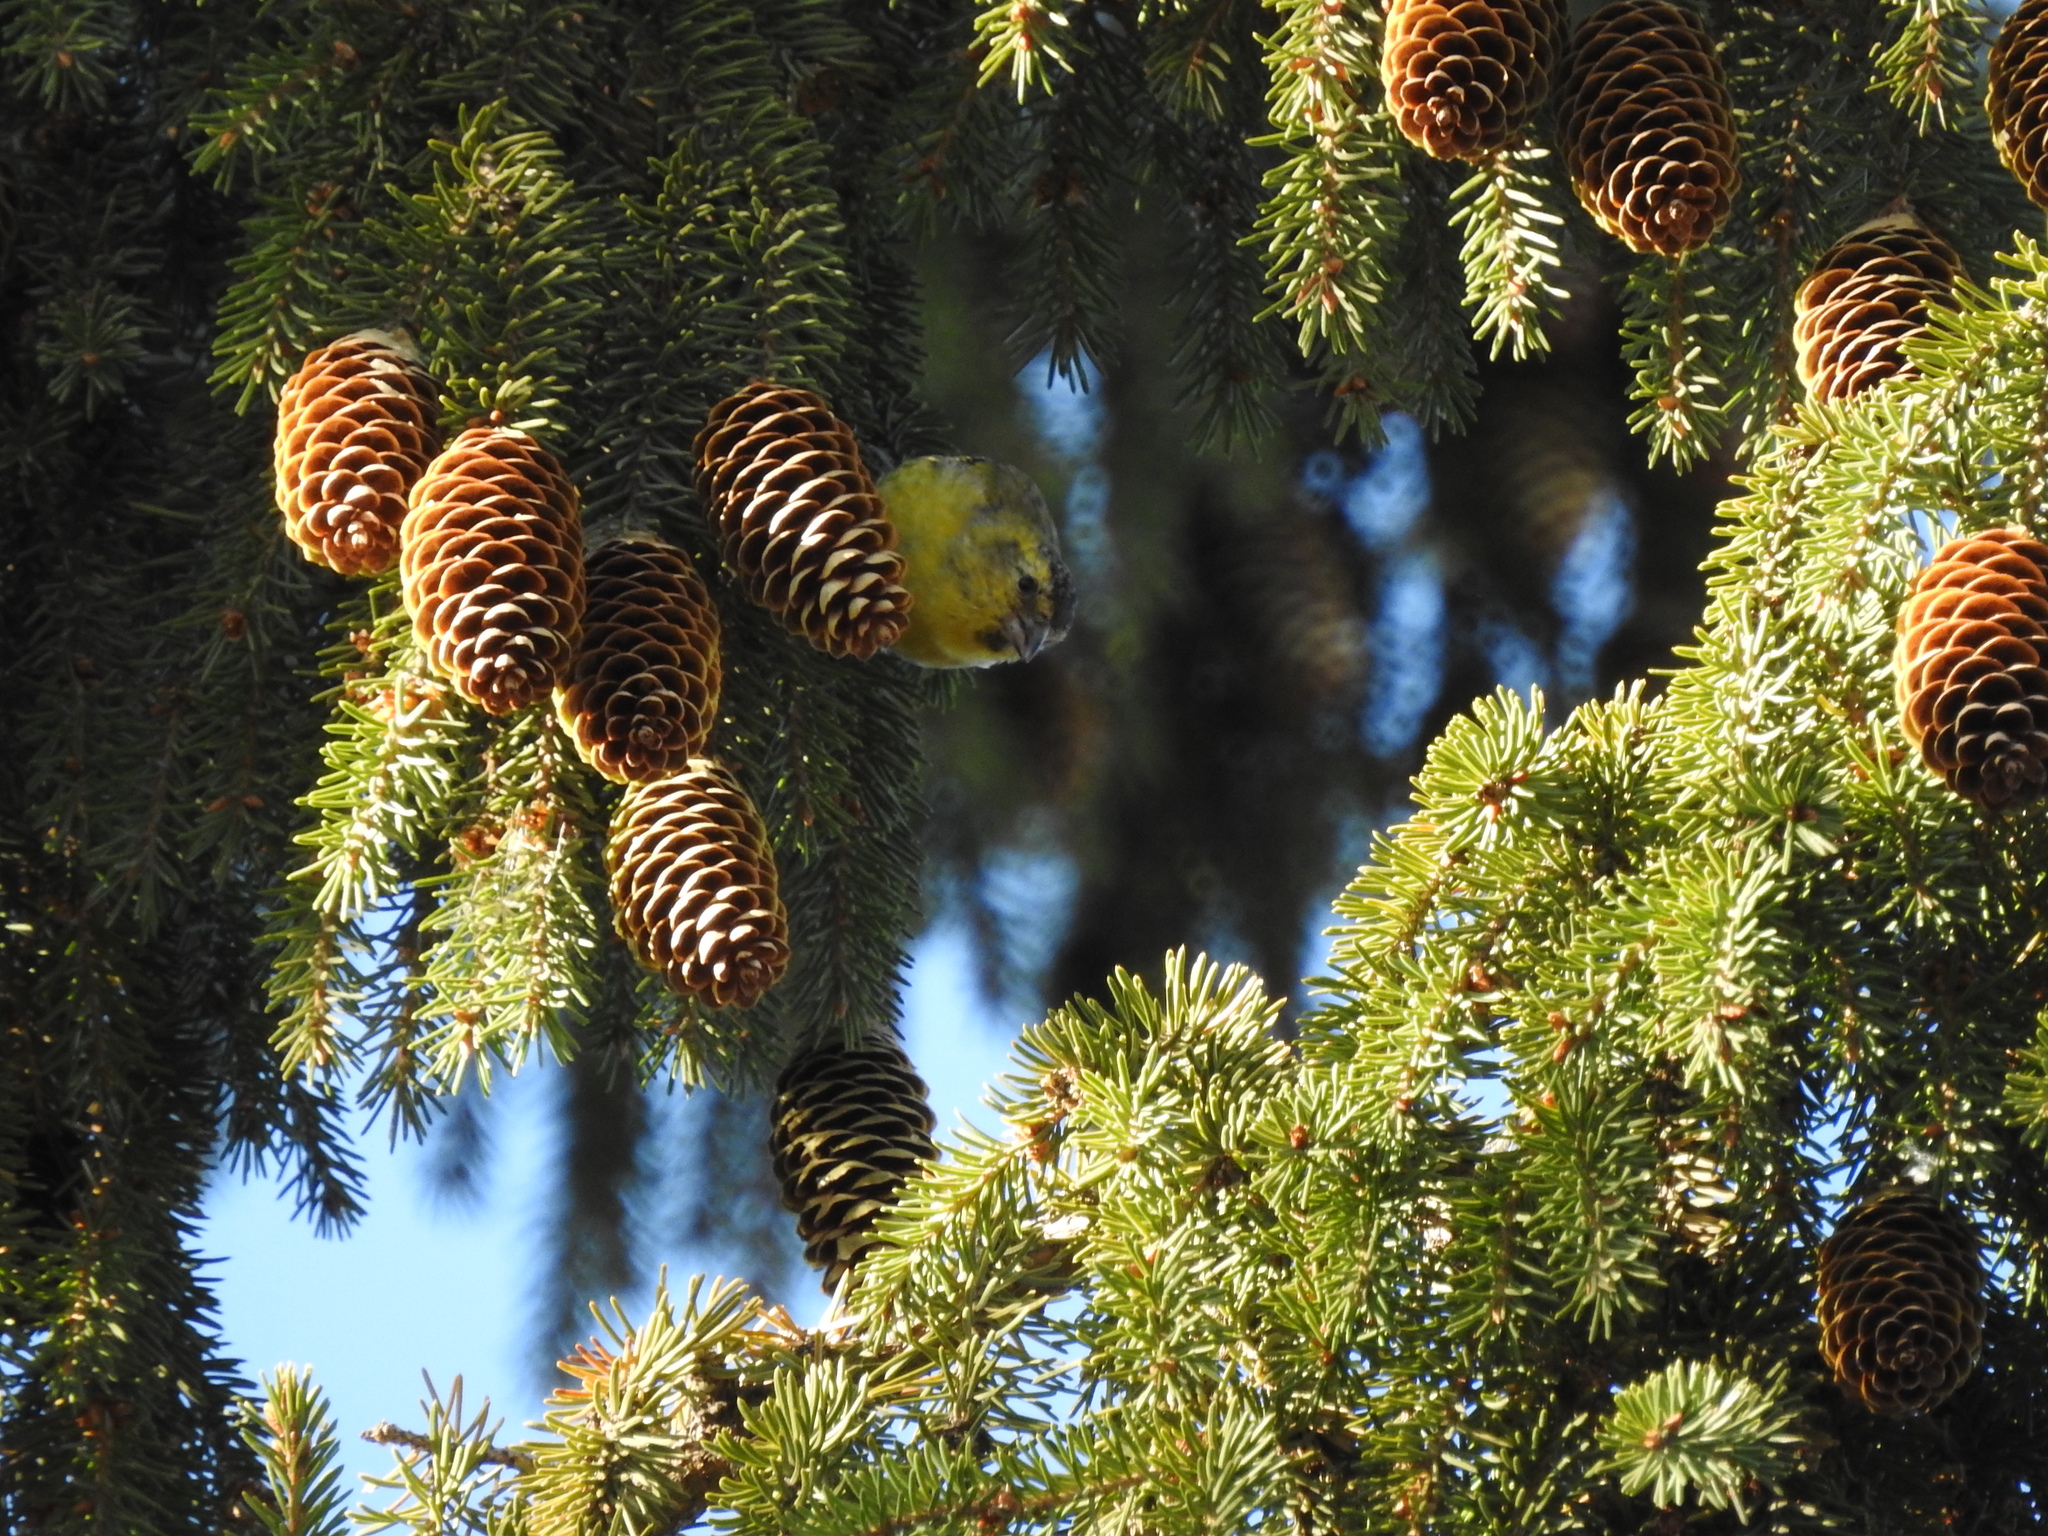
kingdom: Animalia
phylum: Chordata
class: Aves
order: Passeriformes
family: Fringillidae
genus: Spinus
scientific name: Spinus spinus
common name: Eurasian siskin
